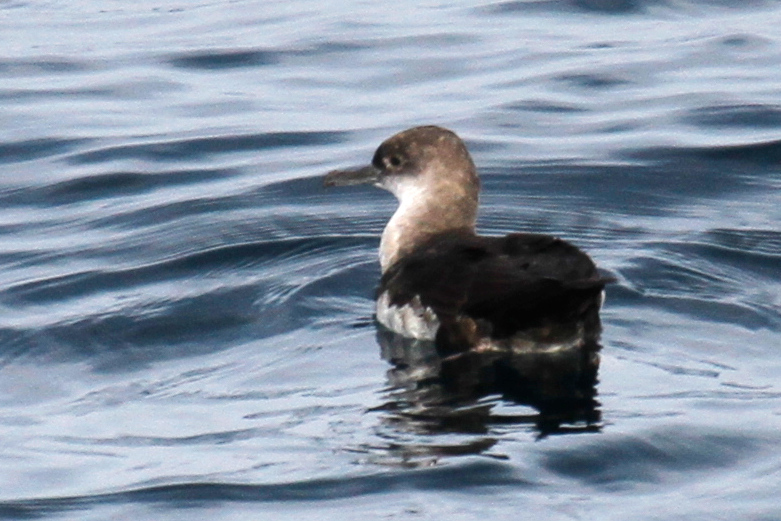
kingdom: Animalia
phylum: Chordata
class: Aves
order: Procellariiformes
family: Procellariidae
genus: Puffinus
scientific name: Puffinus opisthomelas
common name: Black-vented shearwater
